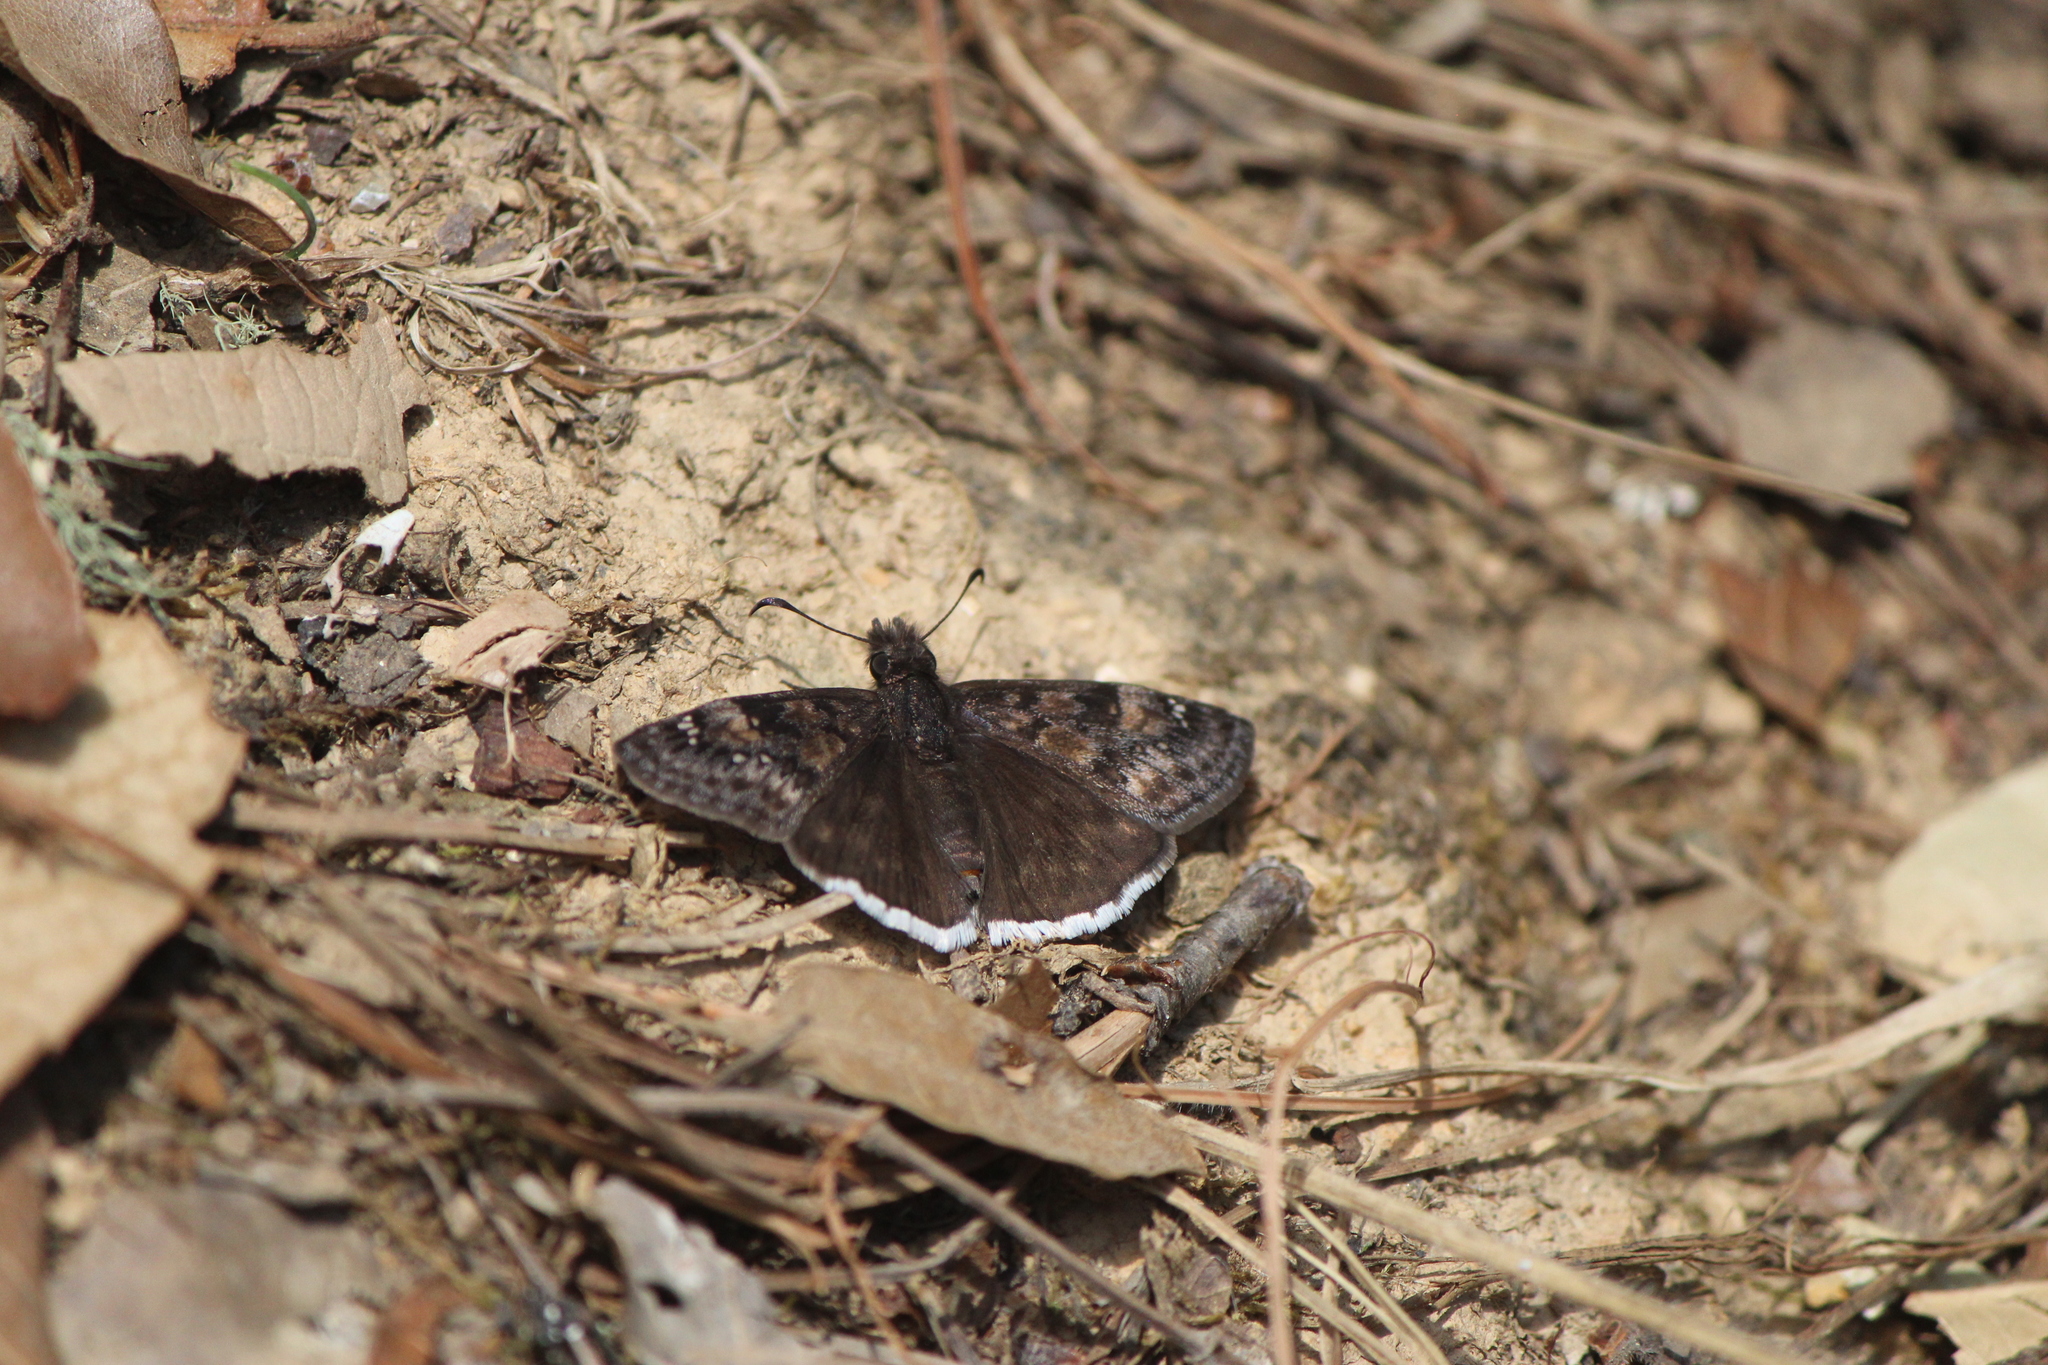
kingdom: Animalia
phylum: Arthropoda
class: Insecta
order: Lepidoptera
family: Hesperiidae
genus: Erynnis
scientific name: Erynnis tristis
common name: Mournful duskywing
